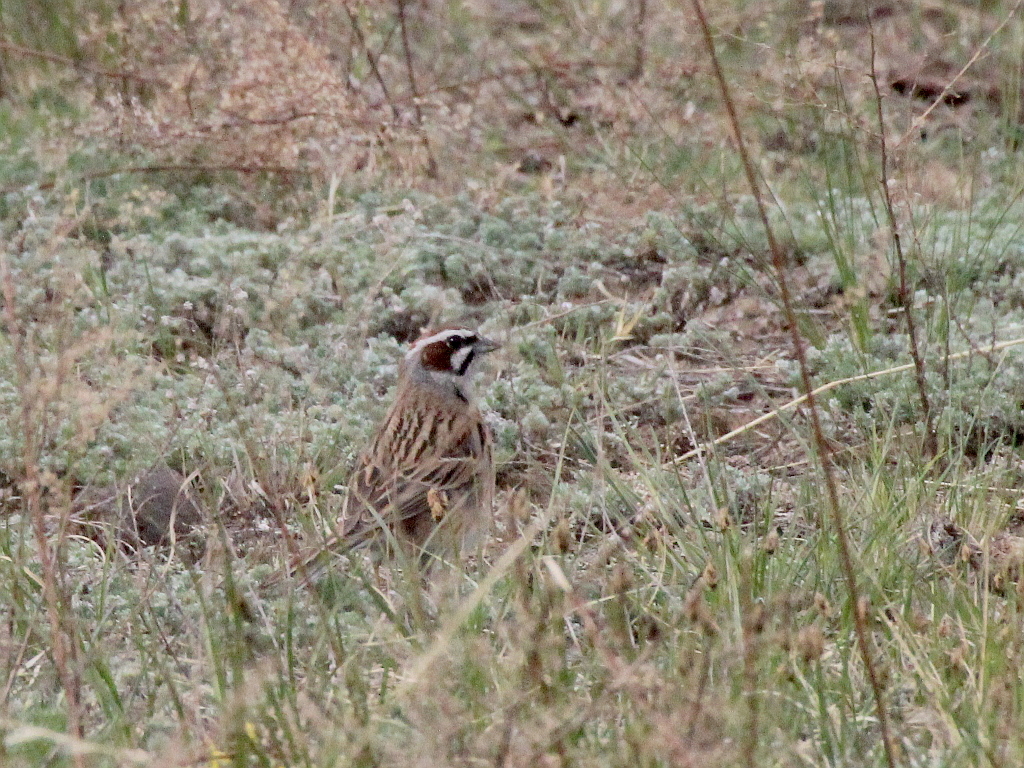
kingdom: Animalia
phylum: Chordata
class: Aves
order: Passeriformes
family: Emberizidae
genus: Emberiza
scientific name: Emberiza cioides
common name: Meadow bunting
